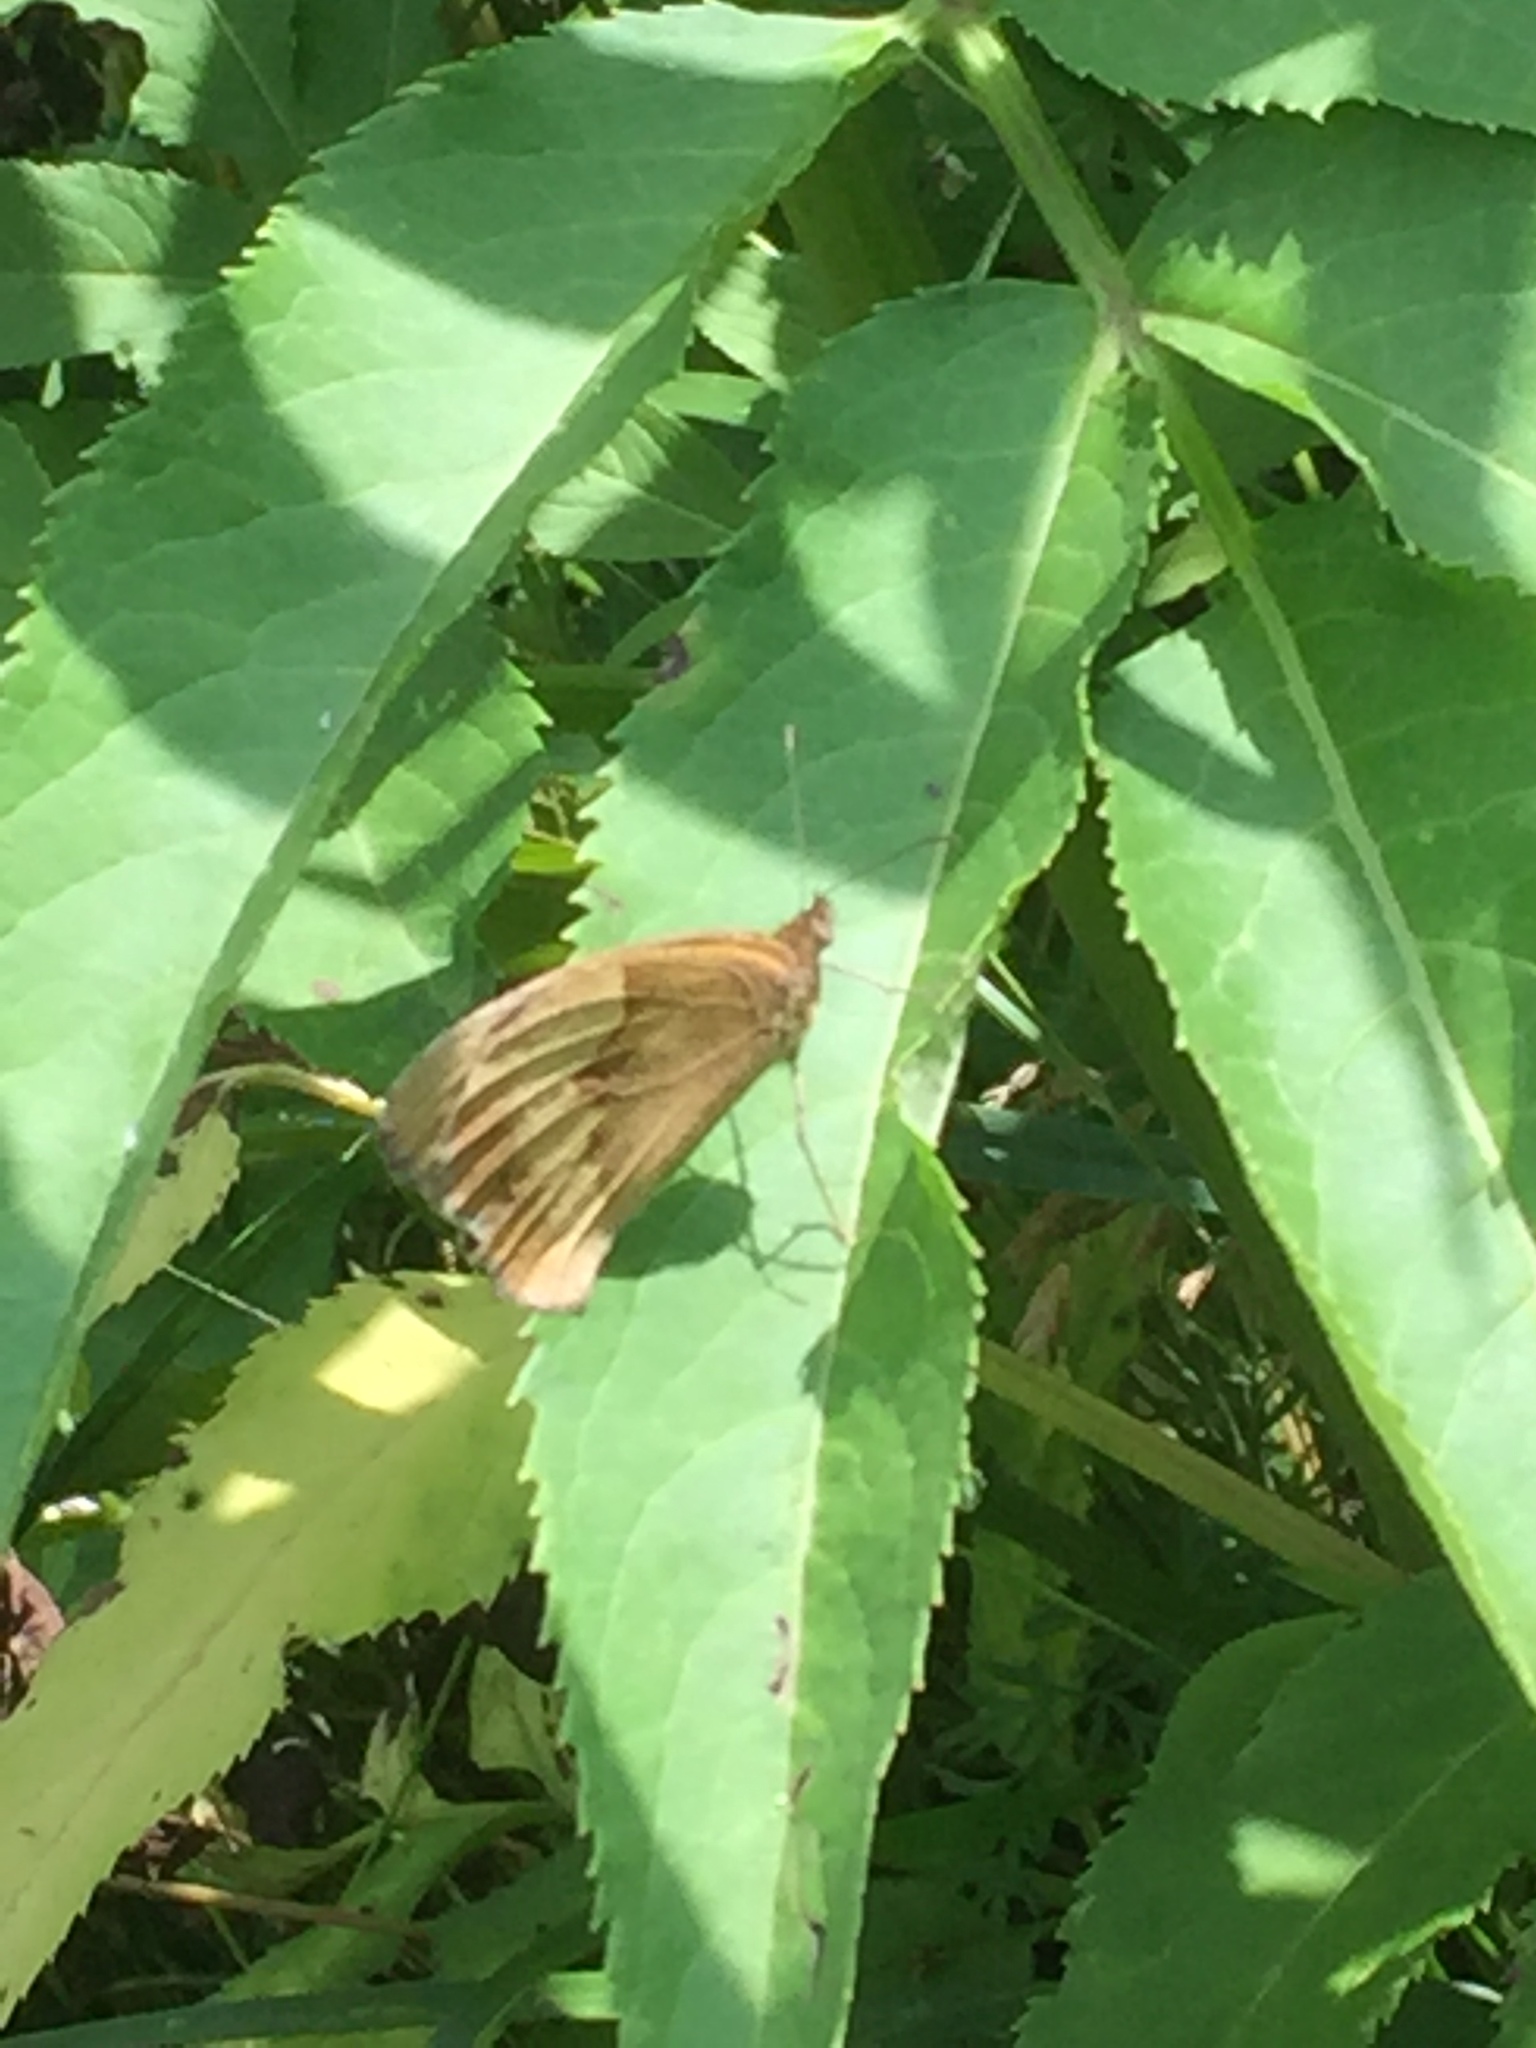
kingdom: Animalia
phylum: Arthropoda
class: Insecta
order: Lepidoptera
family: Nymphalidae
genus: Maniola
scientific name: Maniola jurtina
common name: Meadow brown
